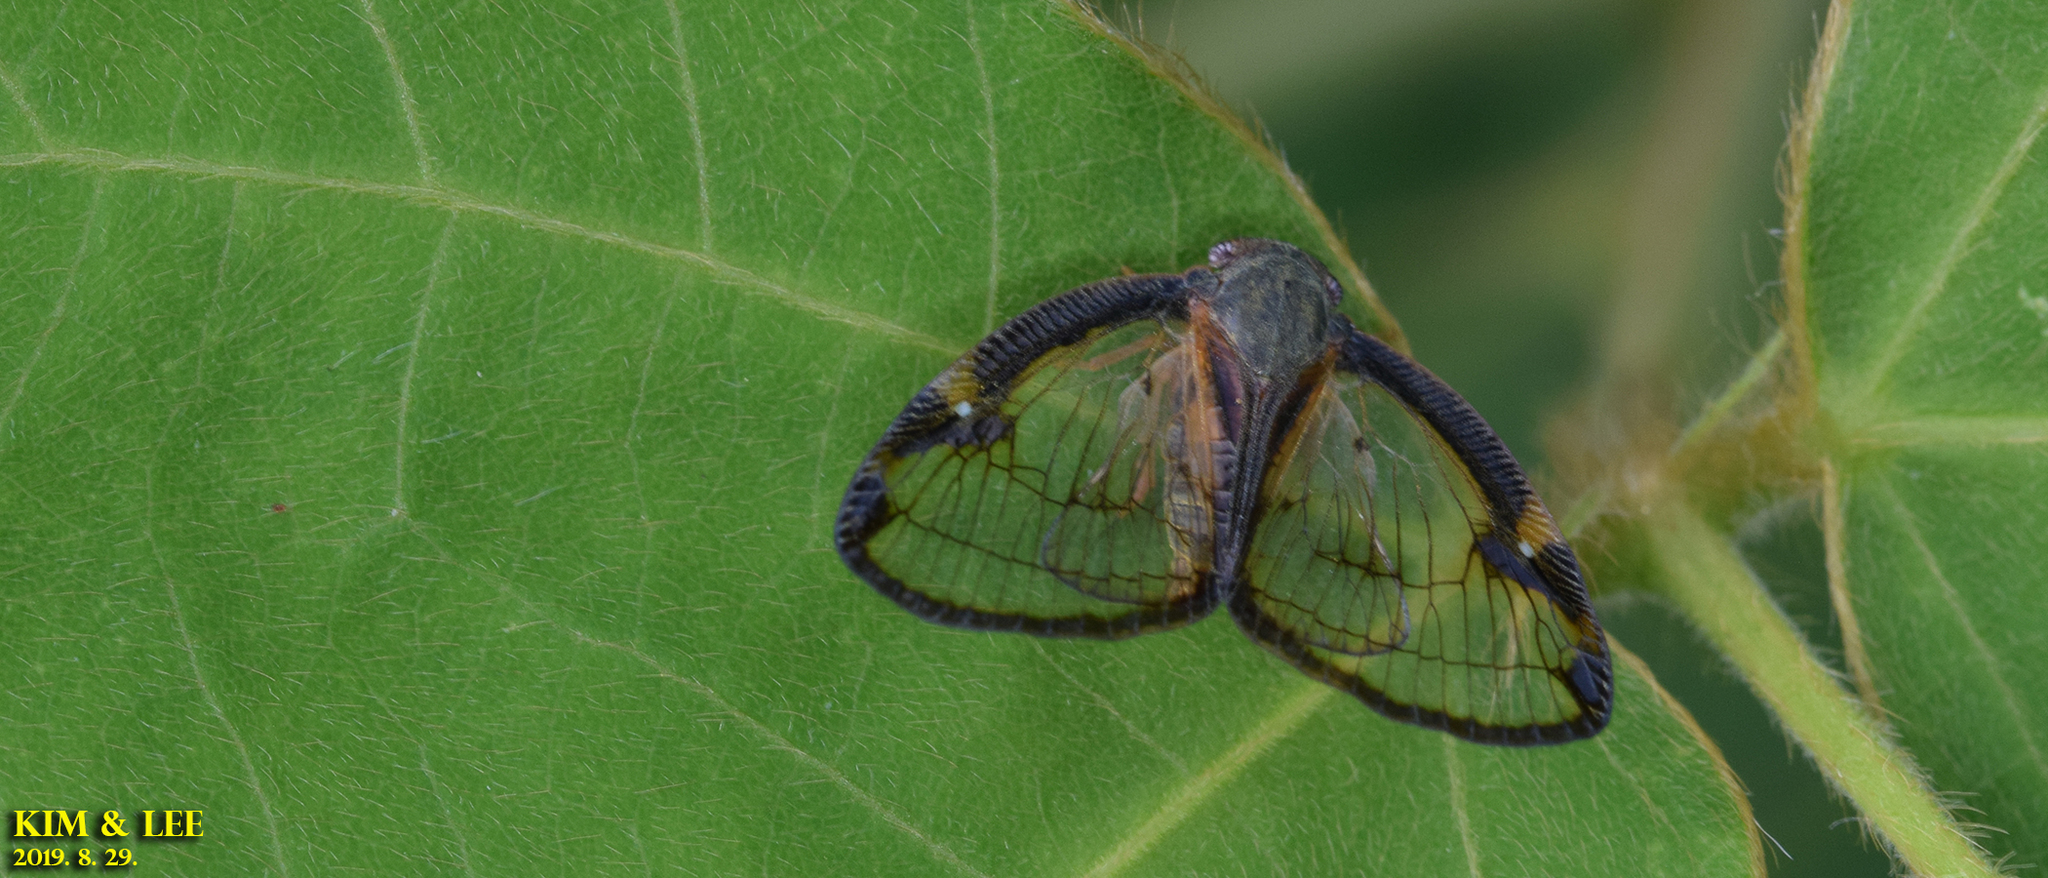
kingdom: Animalia
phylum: Arthropoda
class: Insecta
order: Hemiptera
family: Ricaniidae
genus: Euricania
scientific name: Euricania facialis
